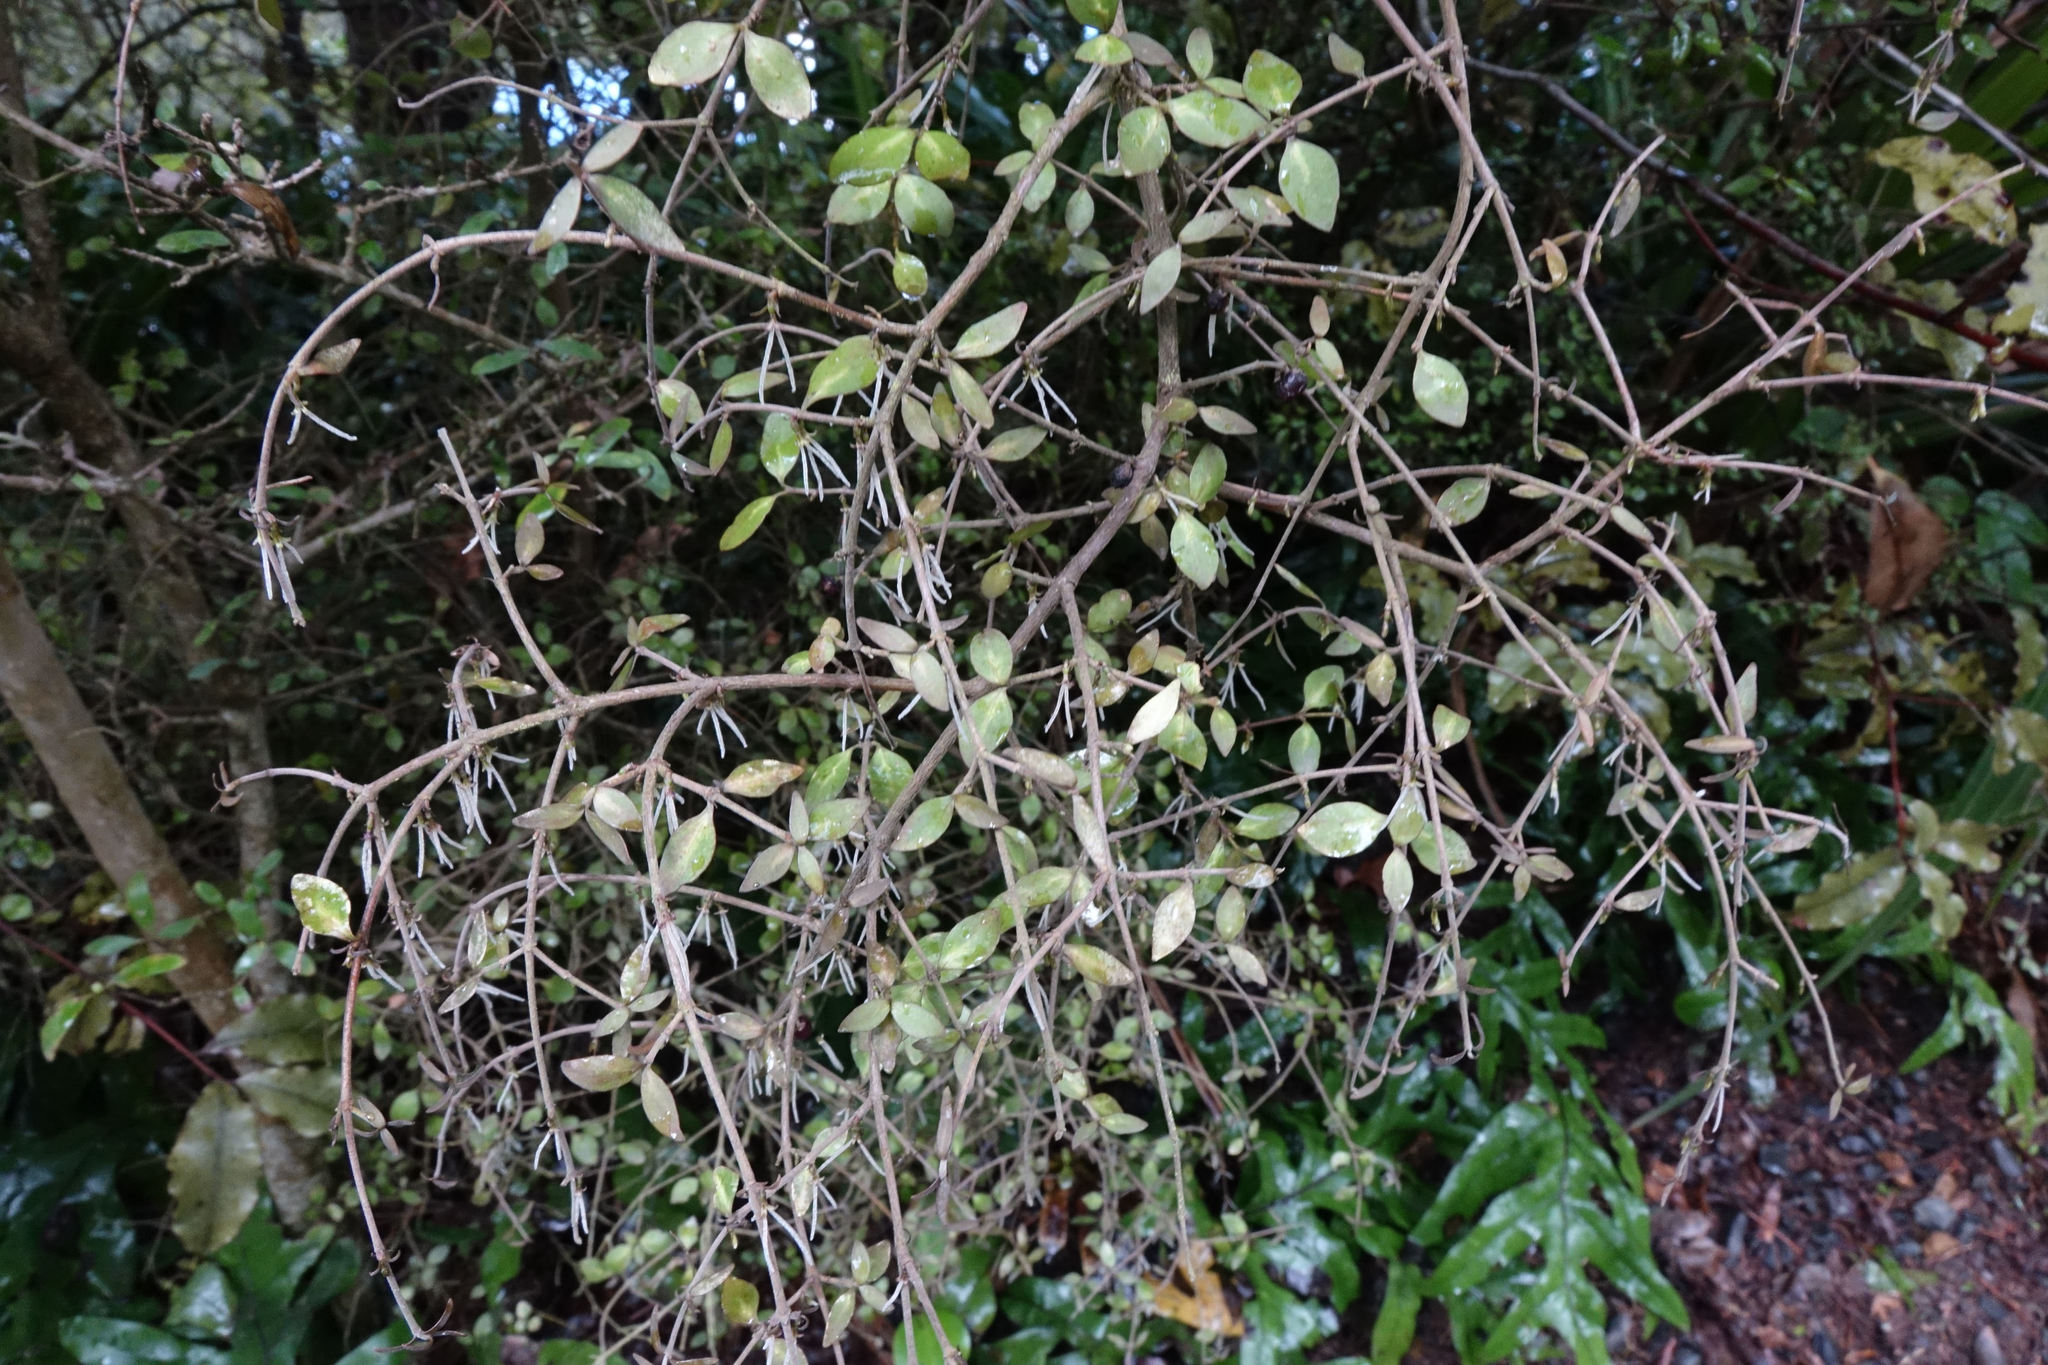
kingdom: Plantae
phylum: Tracheophyta
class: Magnoliopsida
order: Gentianales
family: Rubiaceae
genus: Coprosma
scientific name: Coprosma rhamnoides
